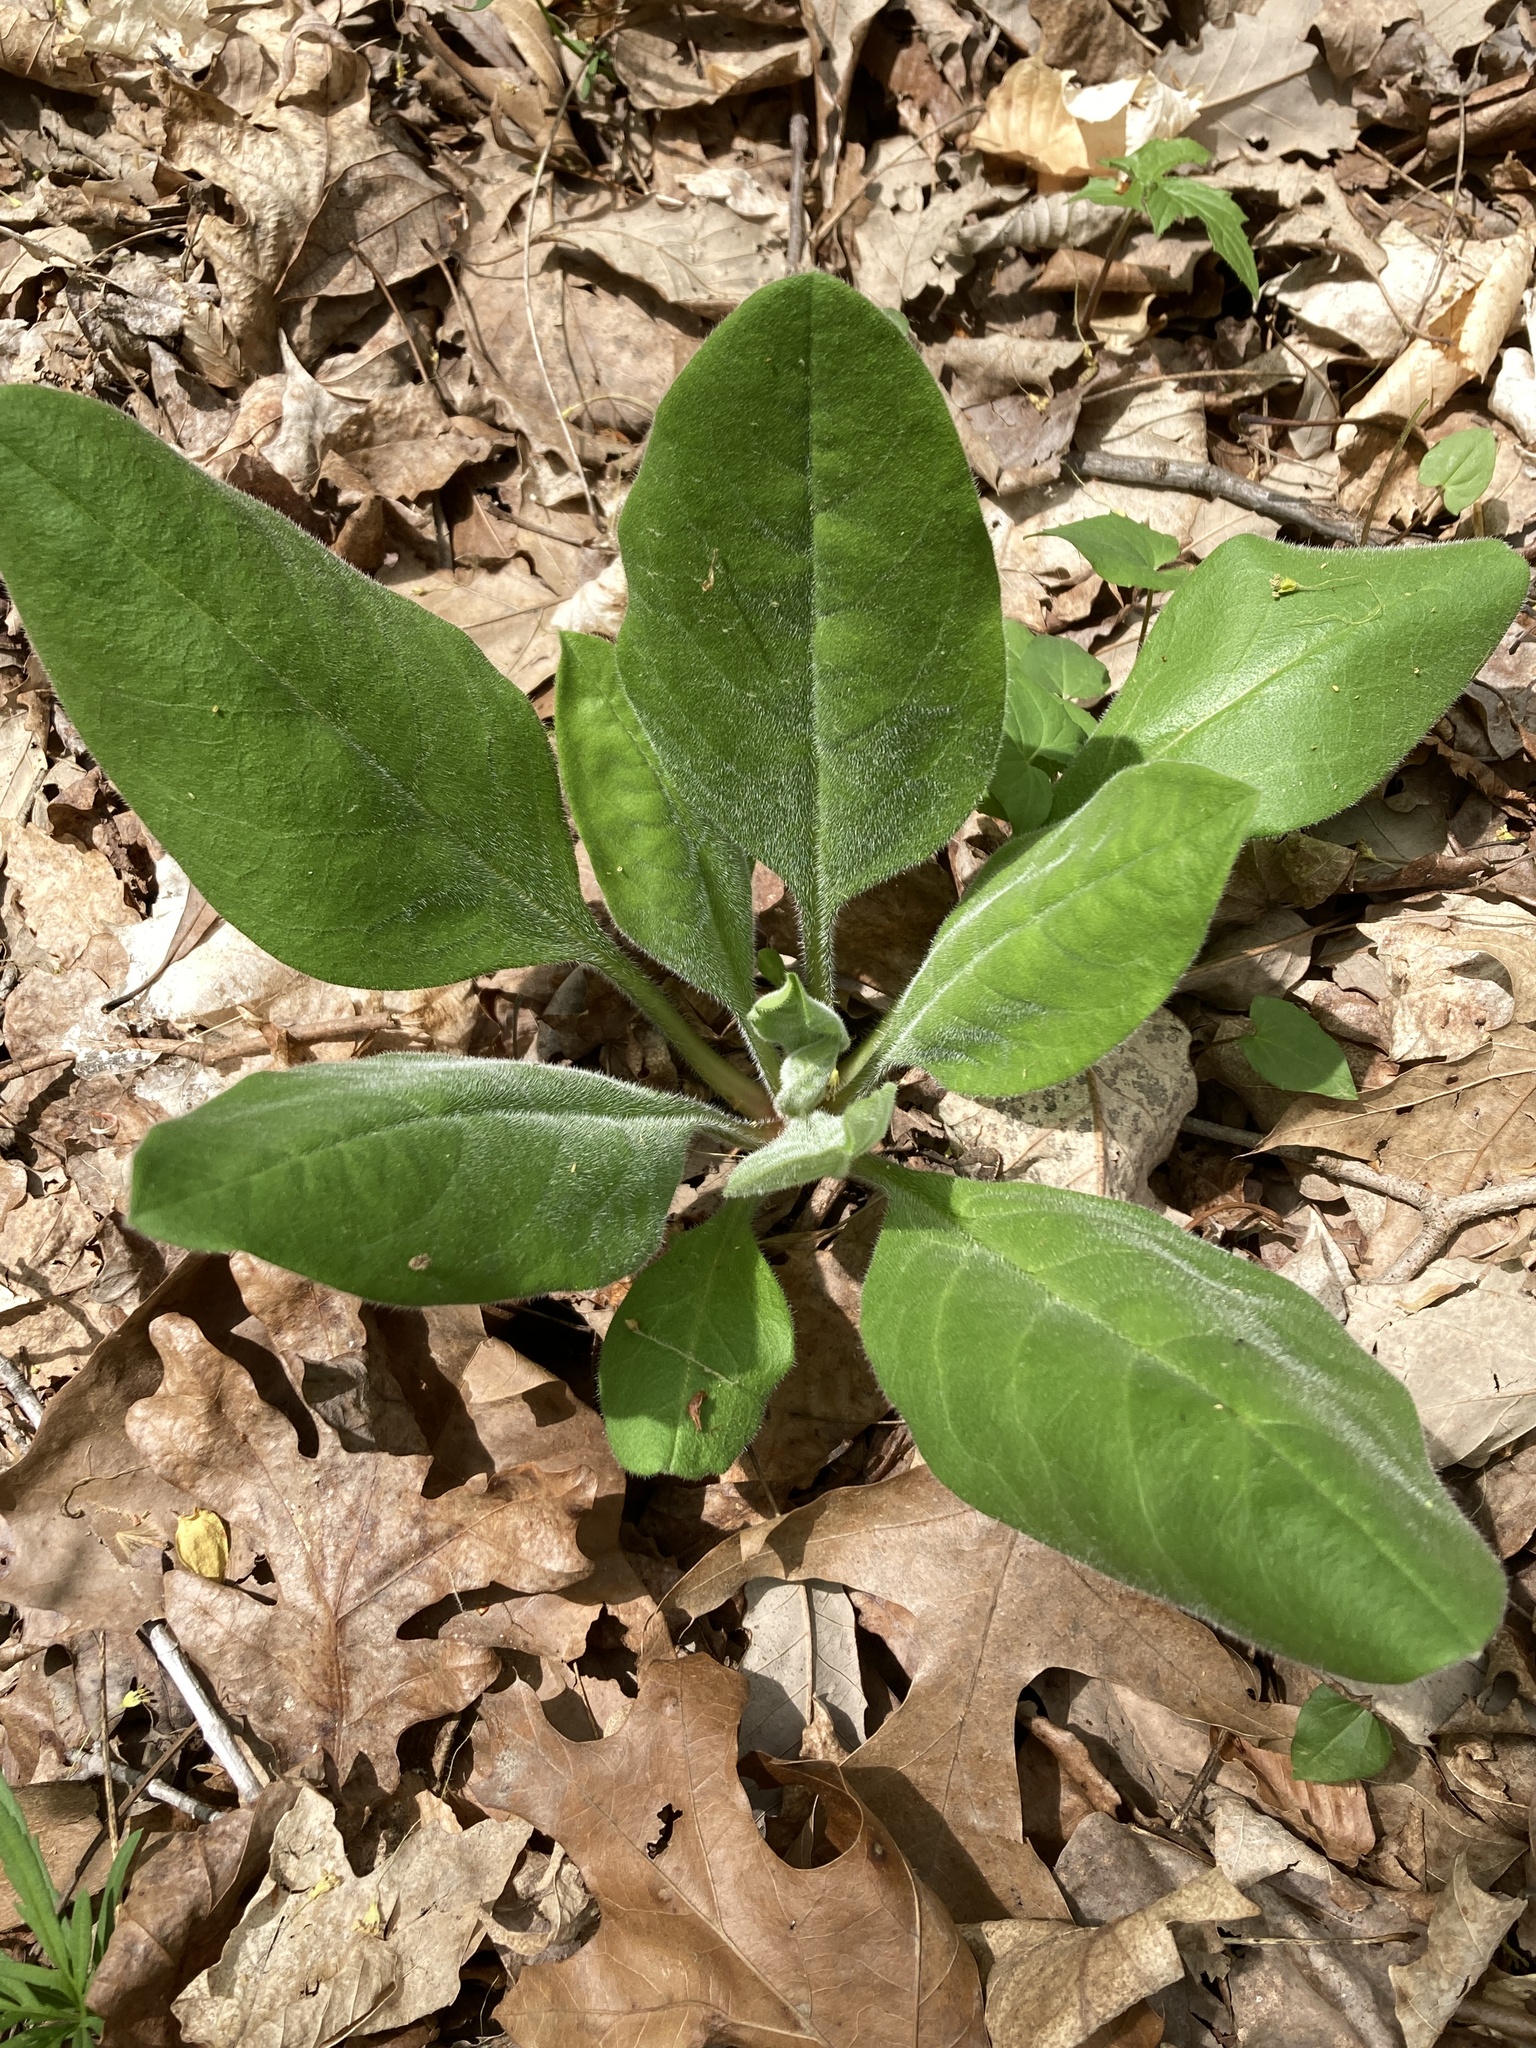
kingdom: Plantae
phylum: Tracheophyta
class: Magnoliopsida
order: Boraginales
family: Boraginaceae
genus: Andersonglossum
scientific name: Andersonglossum virginianum
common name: Wild comfrey
